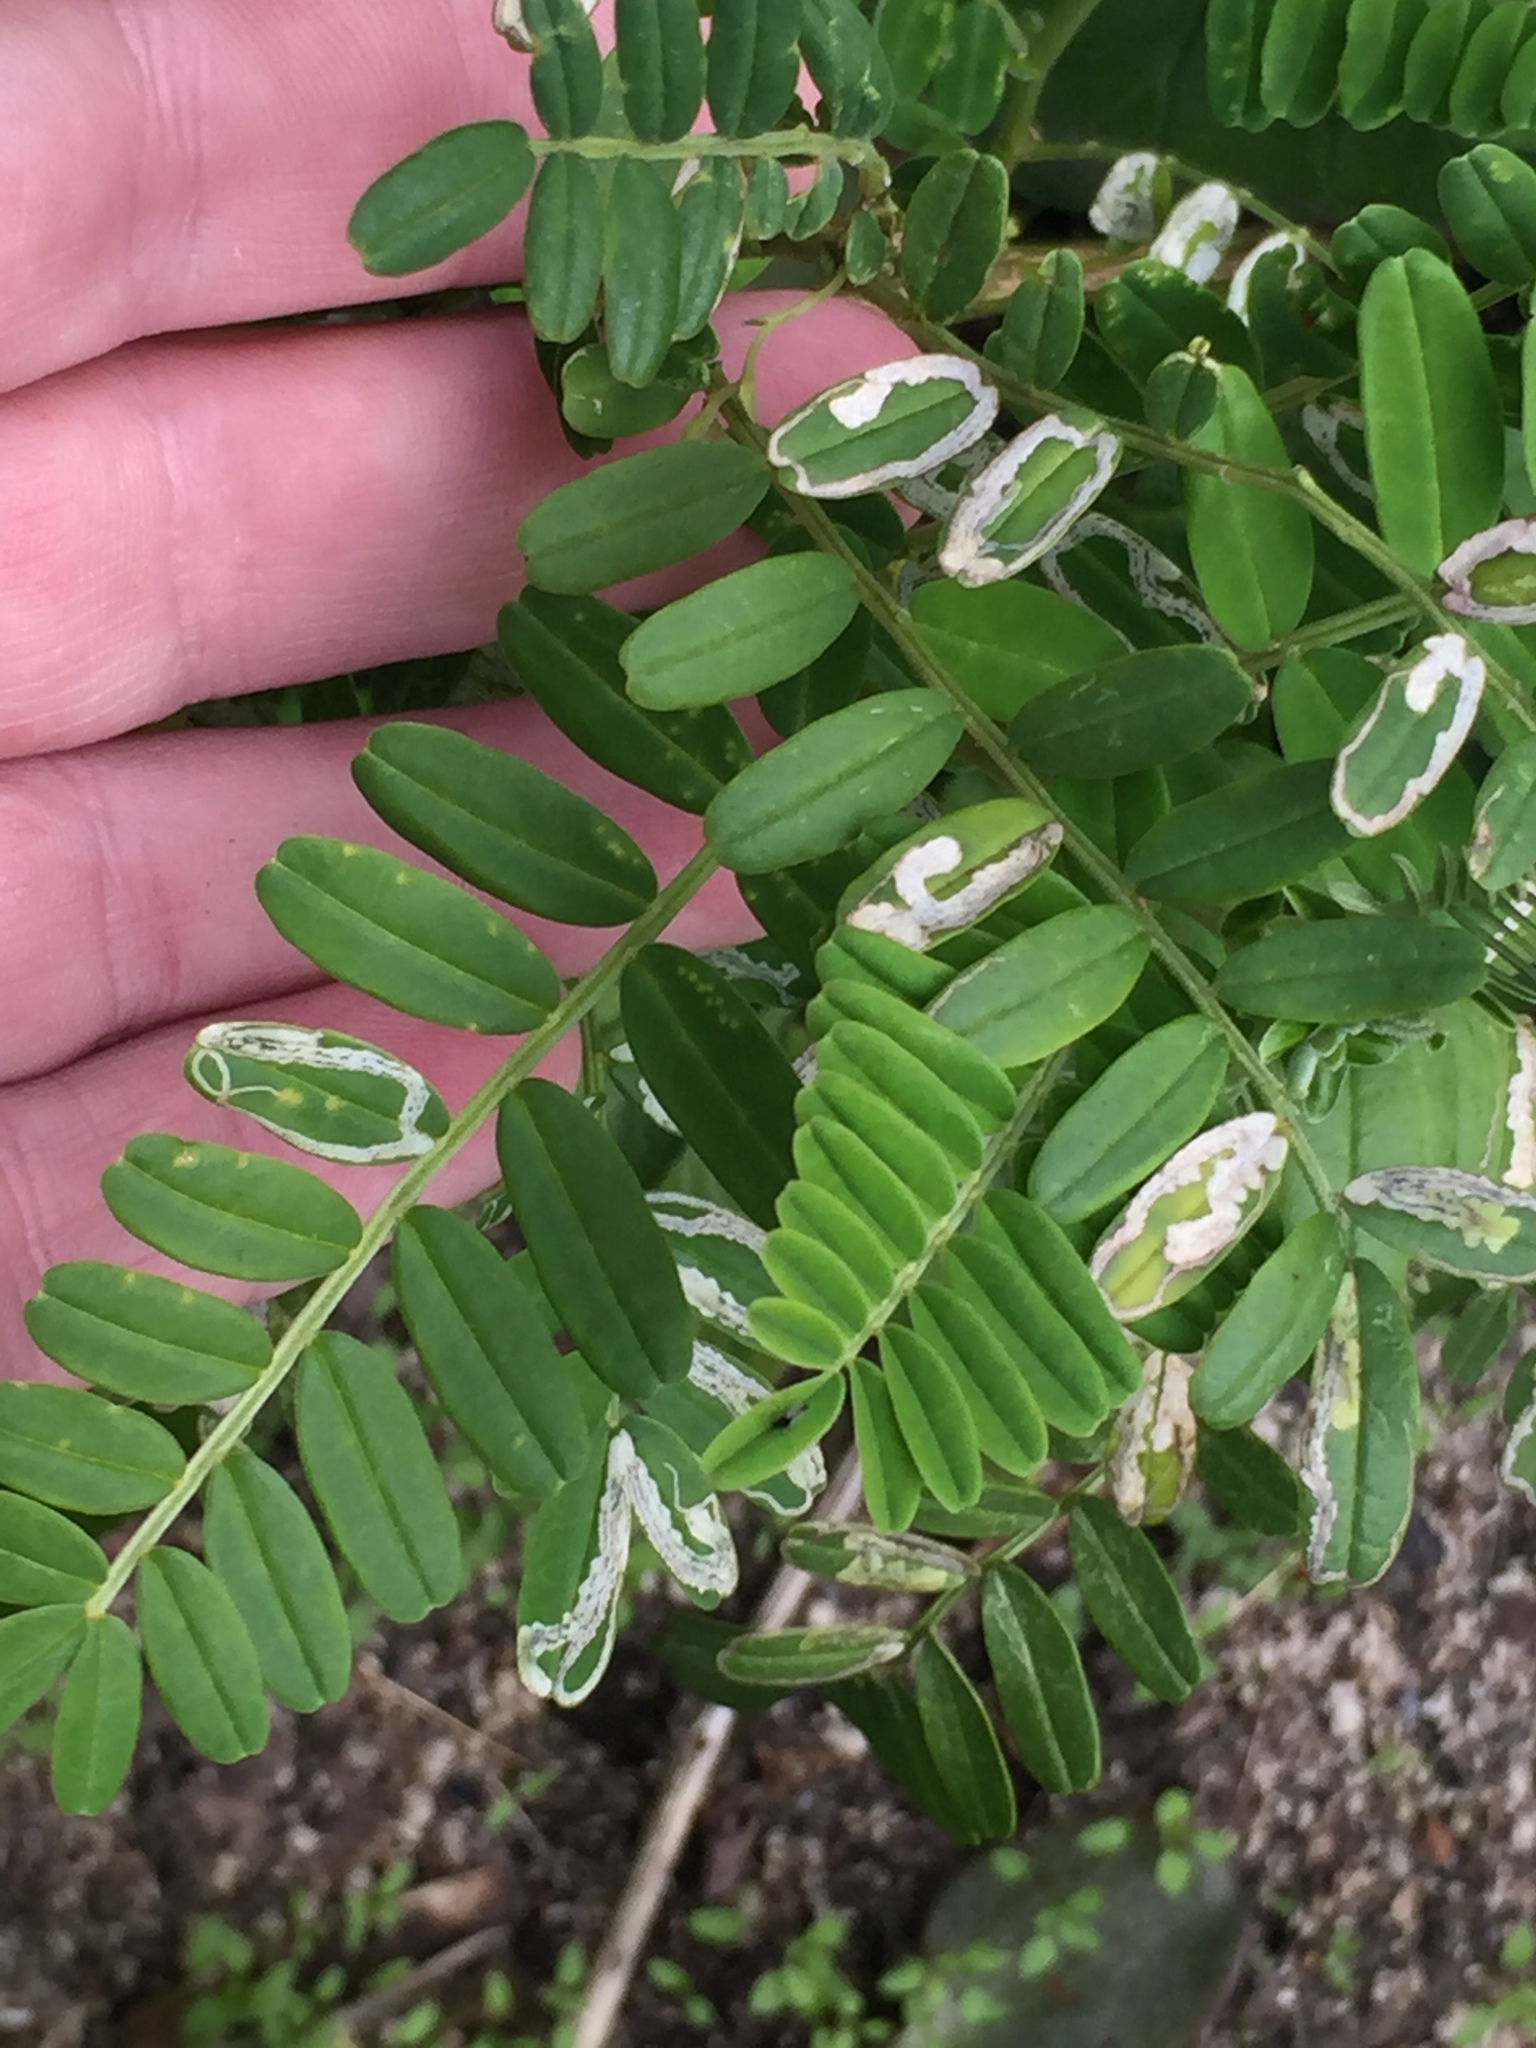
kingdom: Animalia
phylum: Arthropoda
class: Insecta
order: Diptera
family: Agromyzidae
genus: Liriomyza
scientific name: Liriomyza clianthi
